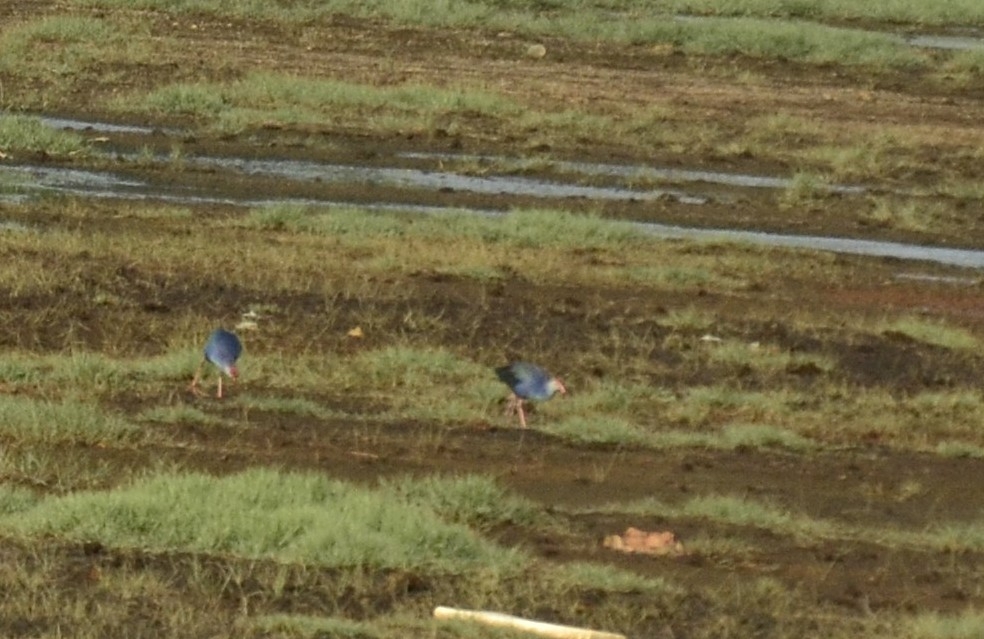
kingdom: Animalia
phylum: Chordata
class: Aves
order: Gruiformes
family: Rallidae
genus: Porphyrio
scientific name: Porphyrio porphyrio
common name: Purple swamphen
